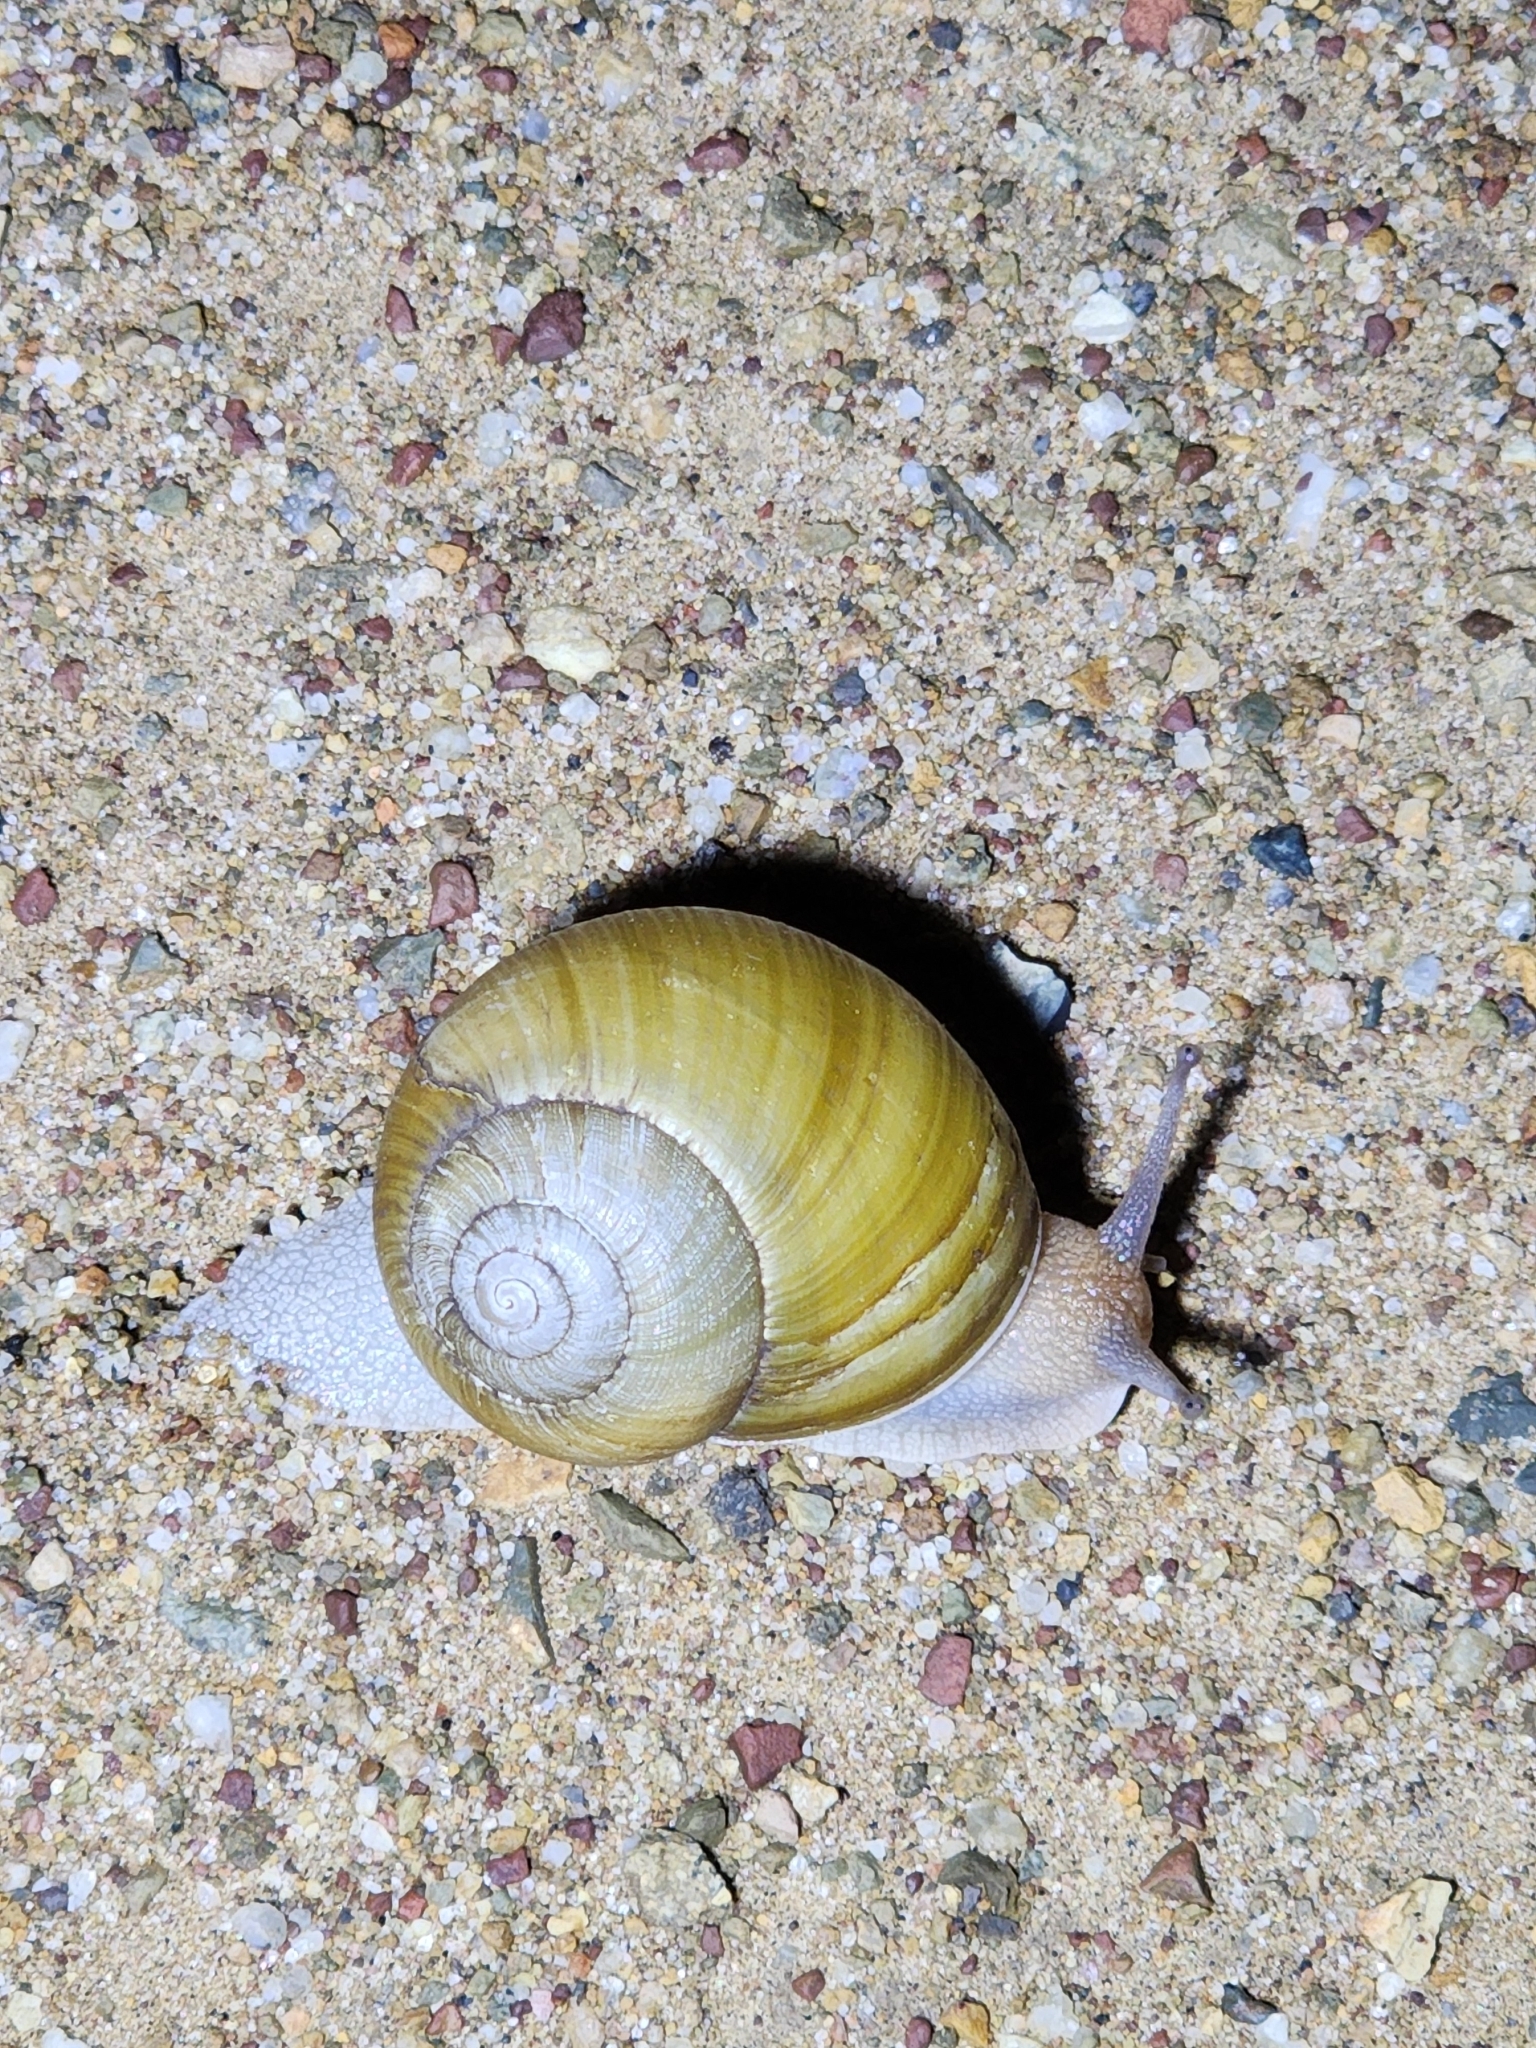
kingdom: Animalia
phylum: Mollusca
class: Gastropoda
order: Stylommatophora
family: Camaenidae
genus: Xanthomelon
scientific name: Xanthomelon pachystylum
